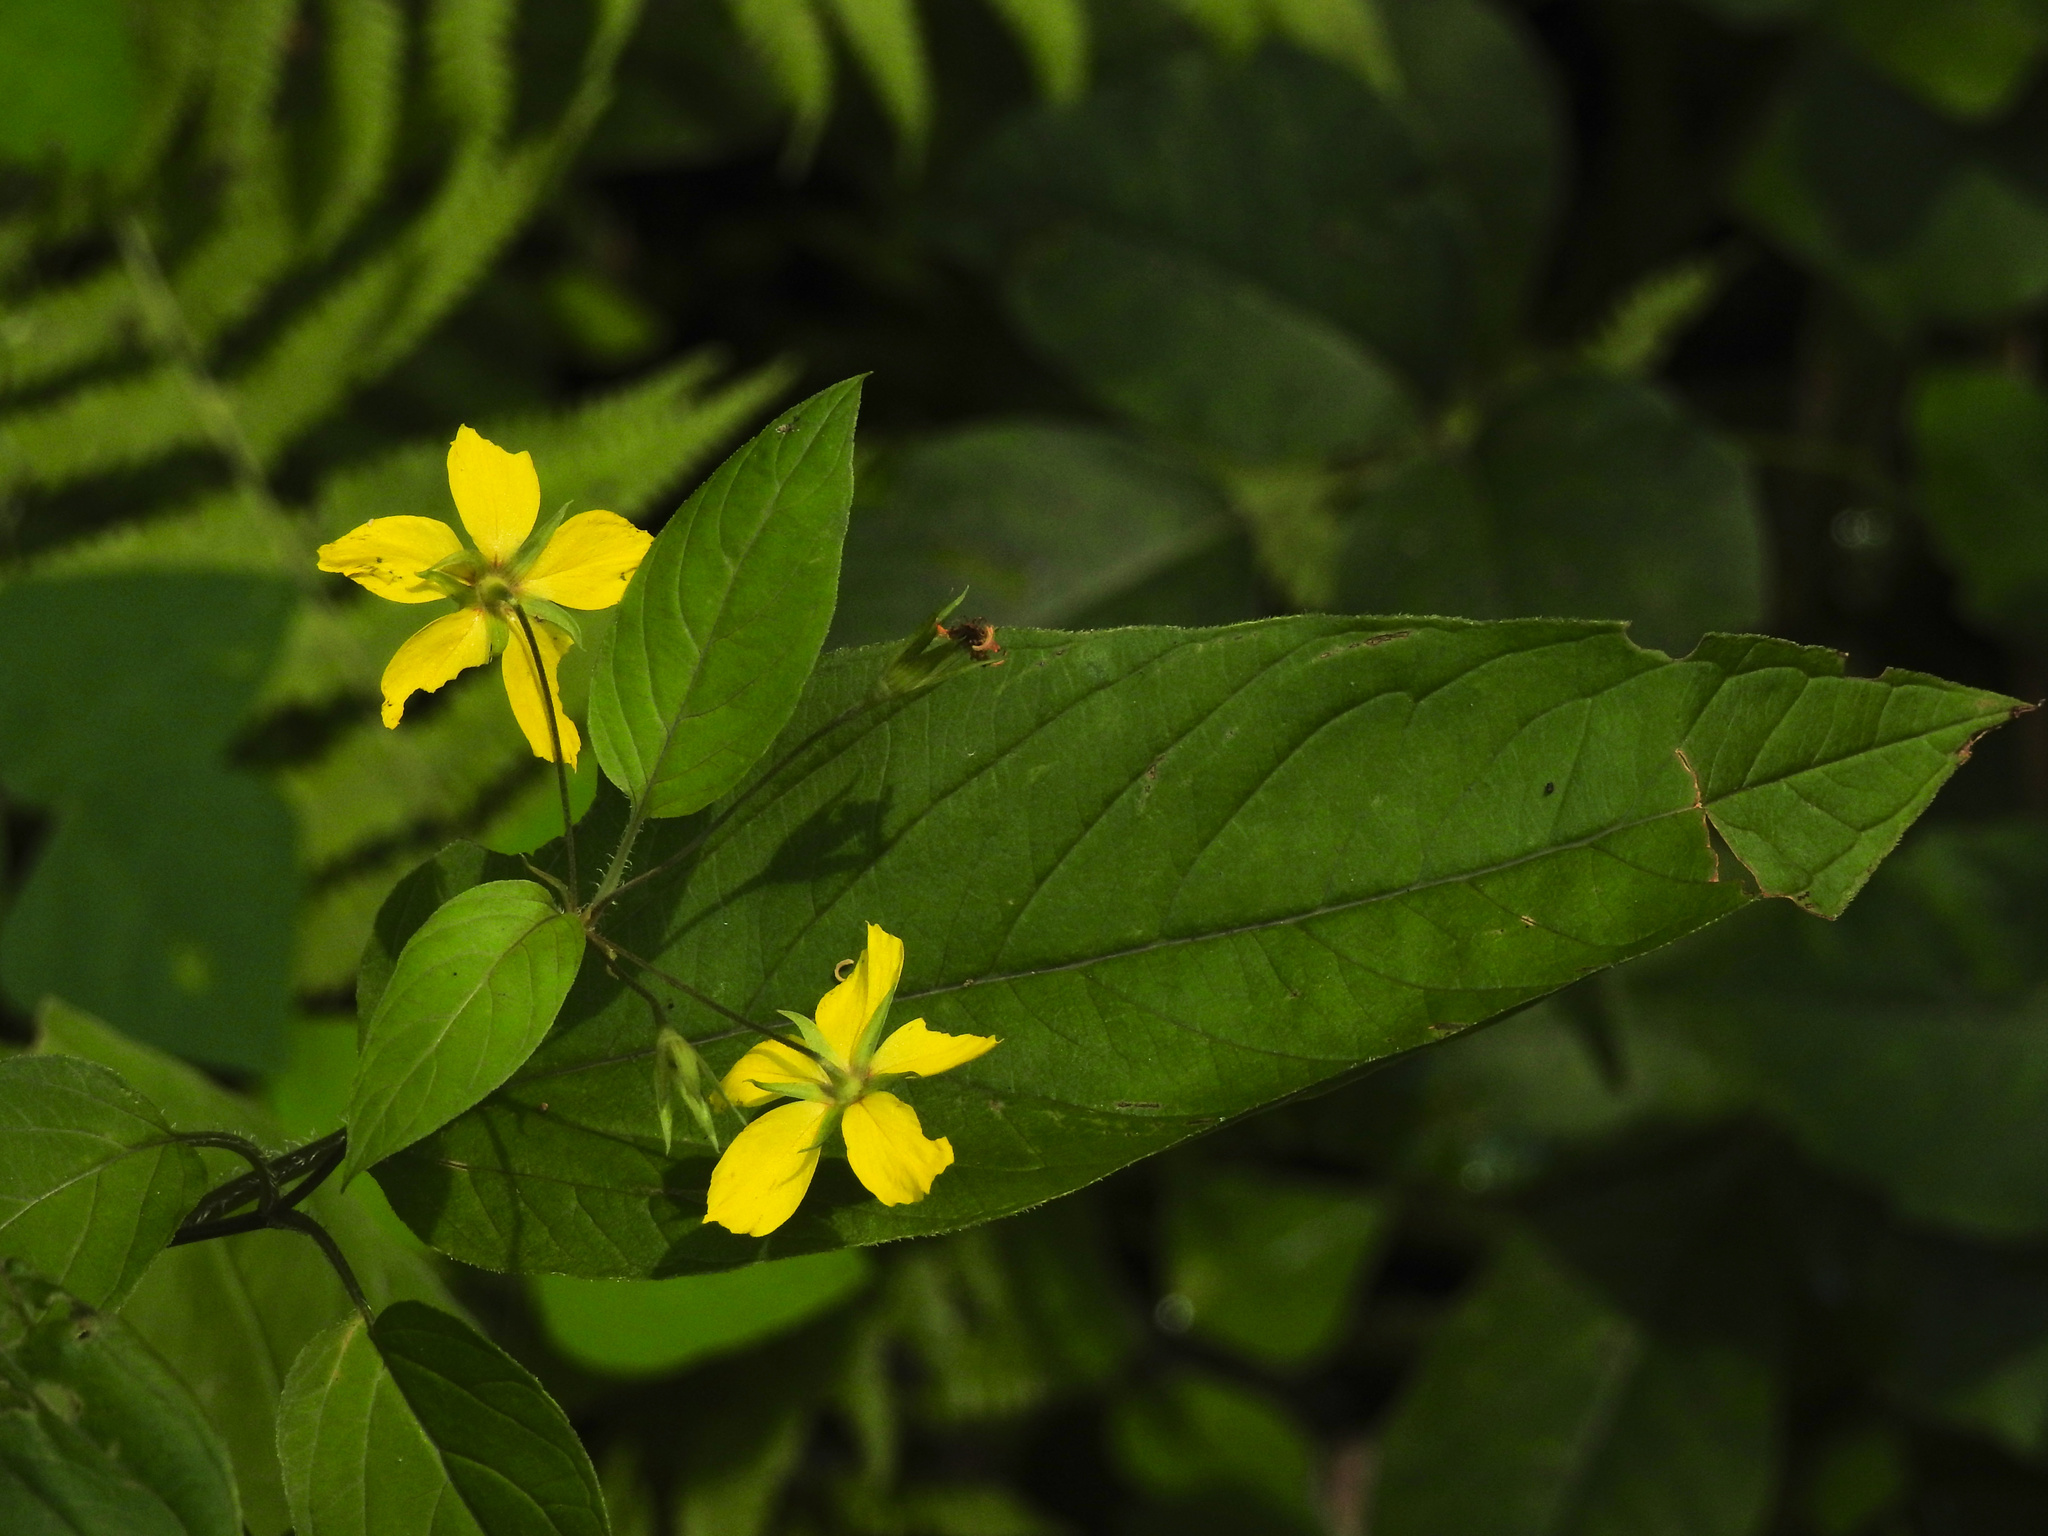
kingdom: Plantae
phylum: Tracheophyta
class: Magnoliopsida
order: Ericales
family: Primulaceae
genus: Lysimachia
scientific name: Lysimachia ciliata
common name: Fringed loosestrife
